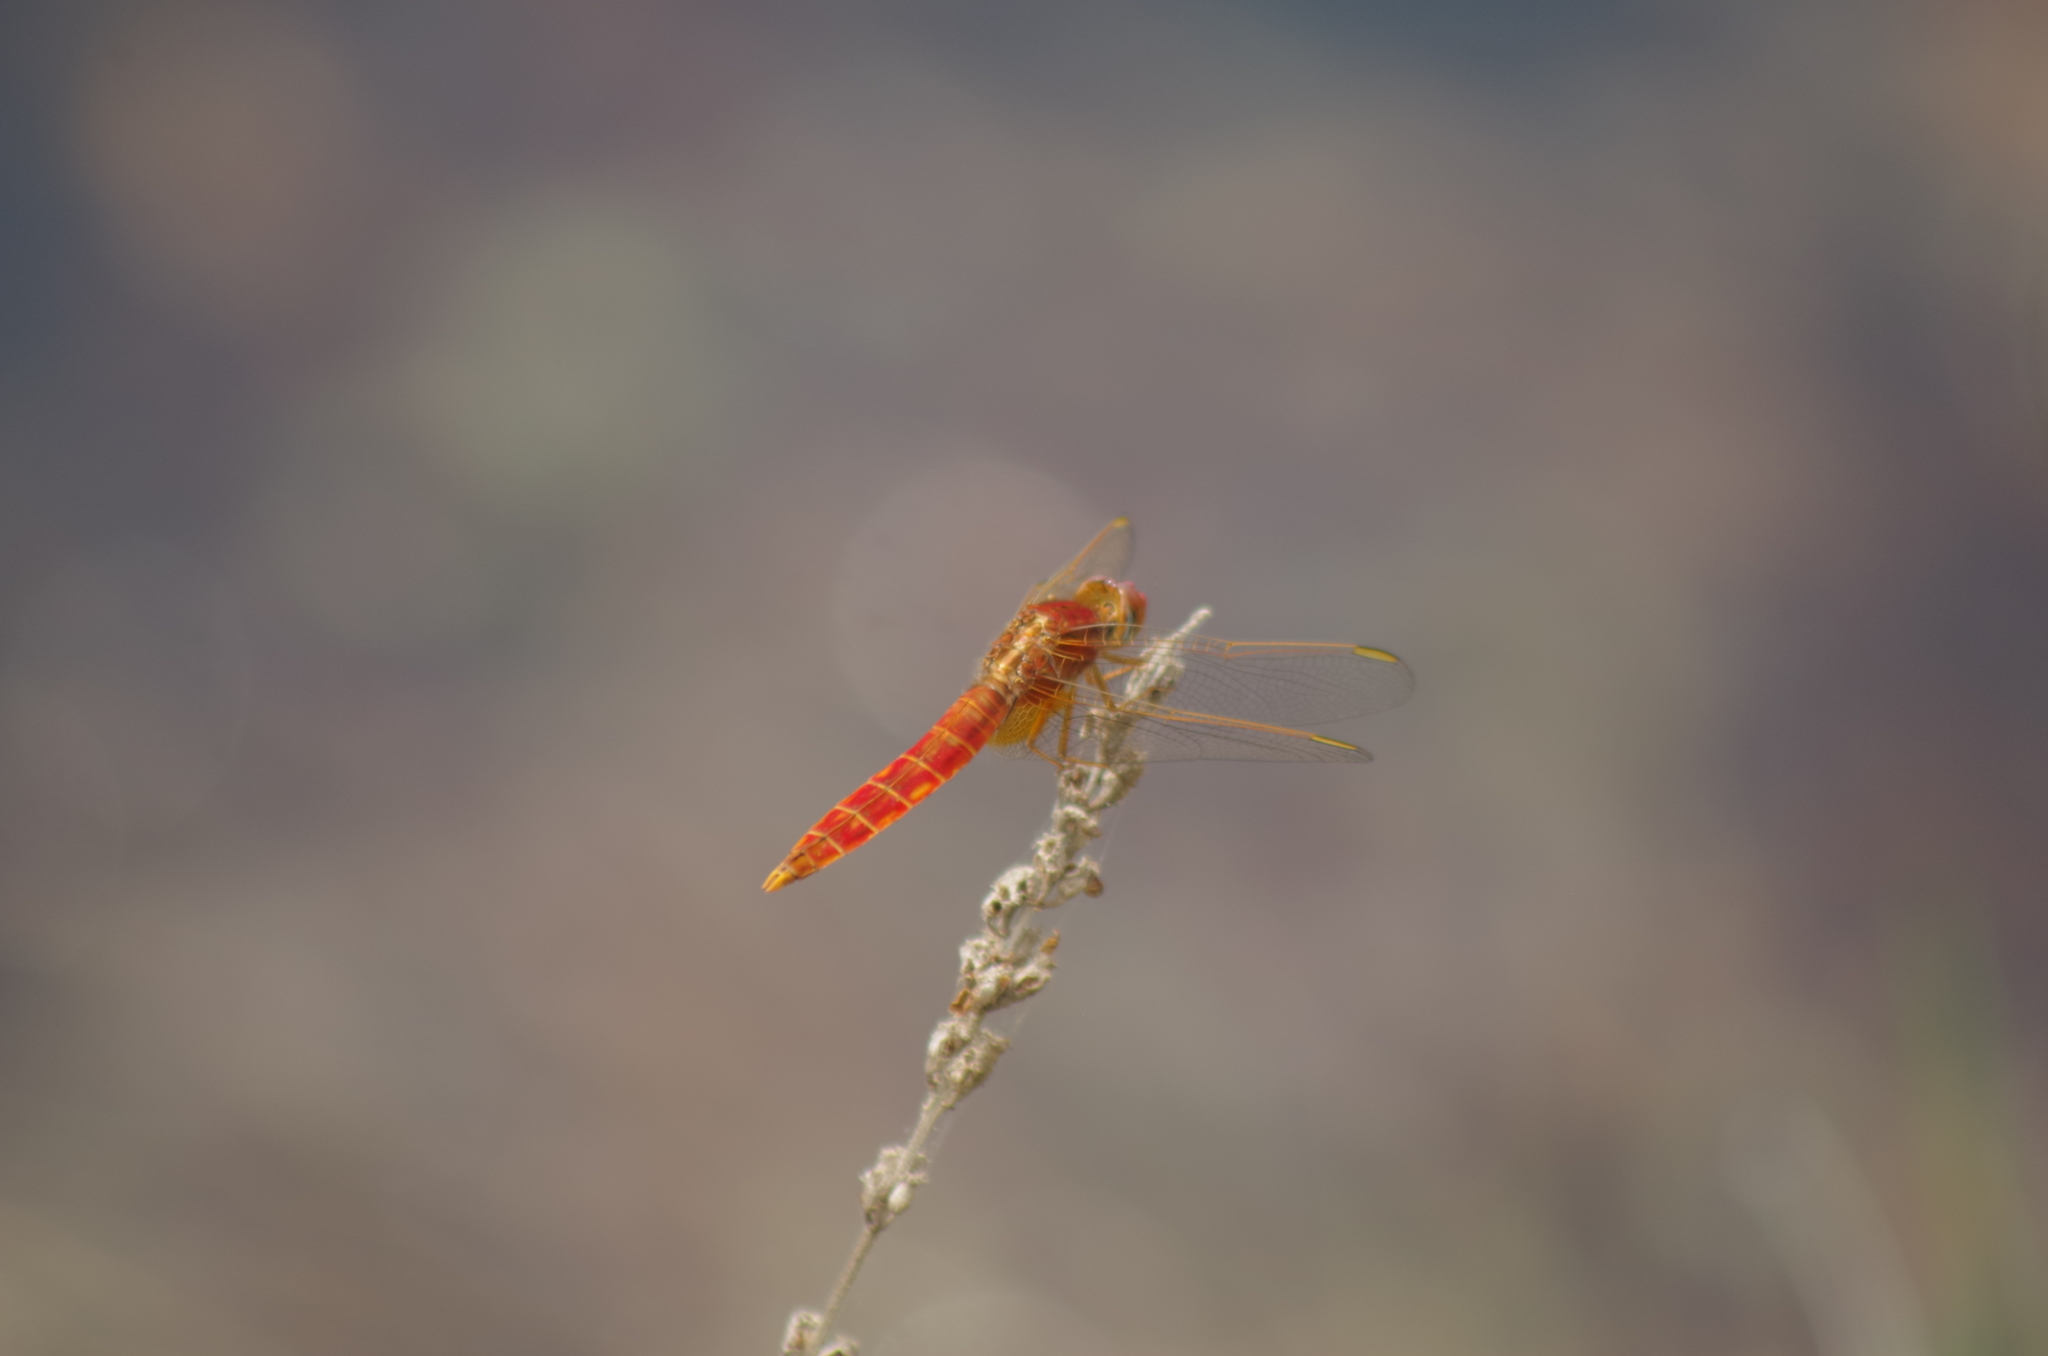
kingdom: Animalia
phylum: Arthropoda
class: Insecta
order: Odonata
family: Libellulidae
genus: Crocothemis
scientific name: Crocothemis erythraea
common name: Scarlet dragonfly
